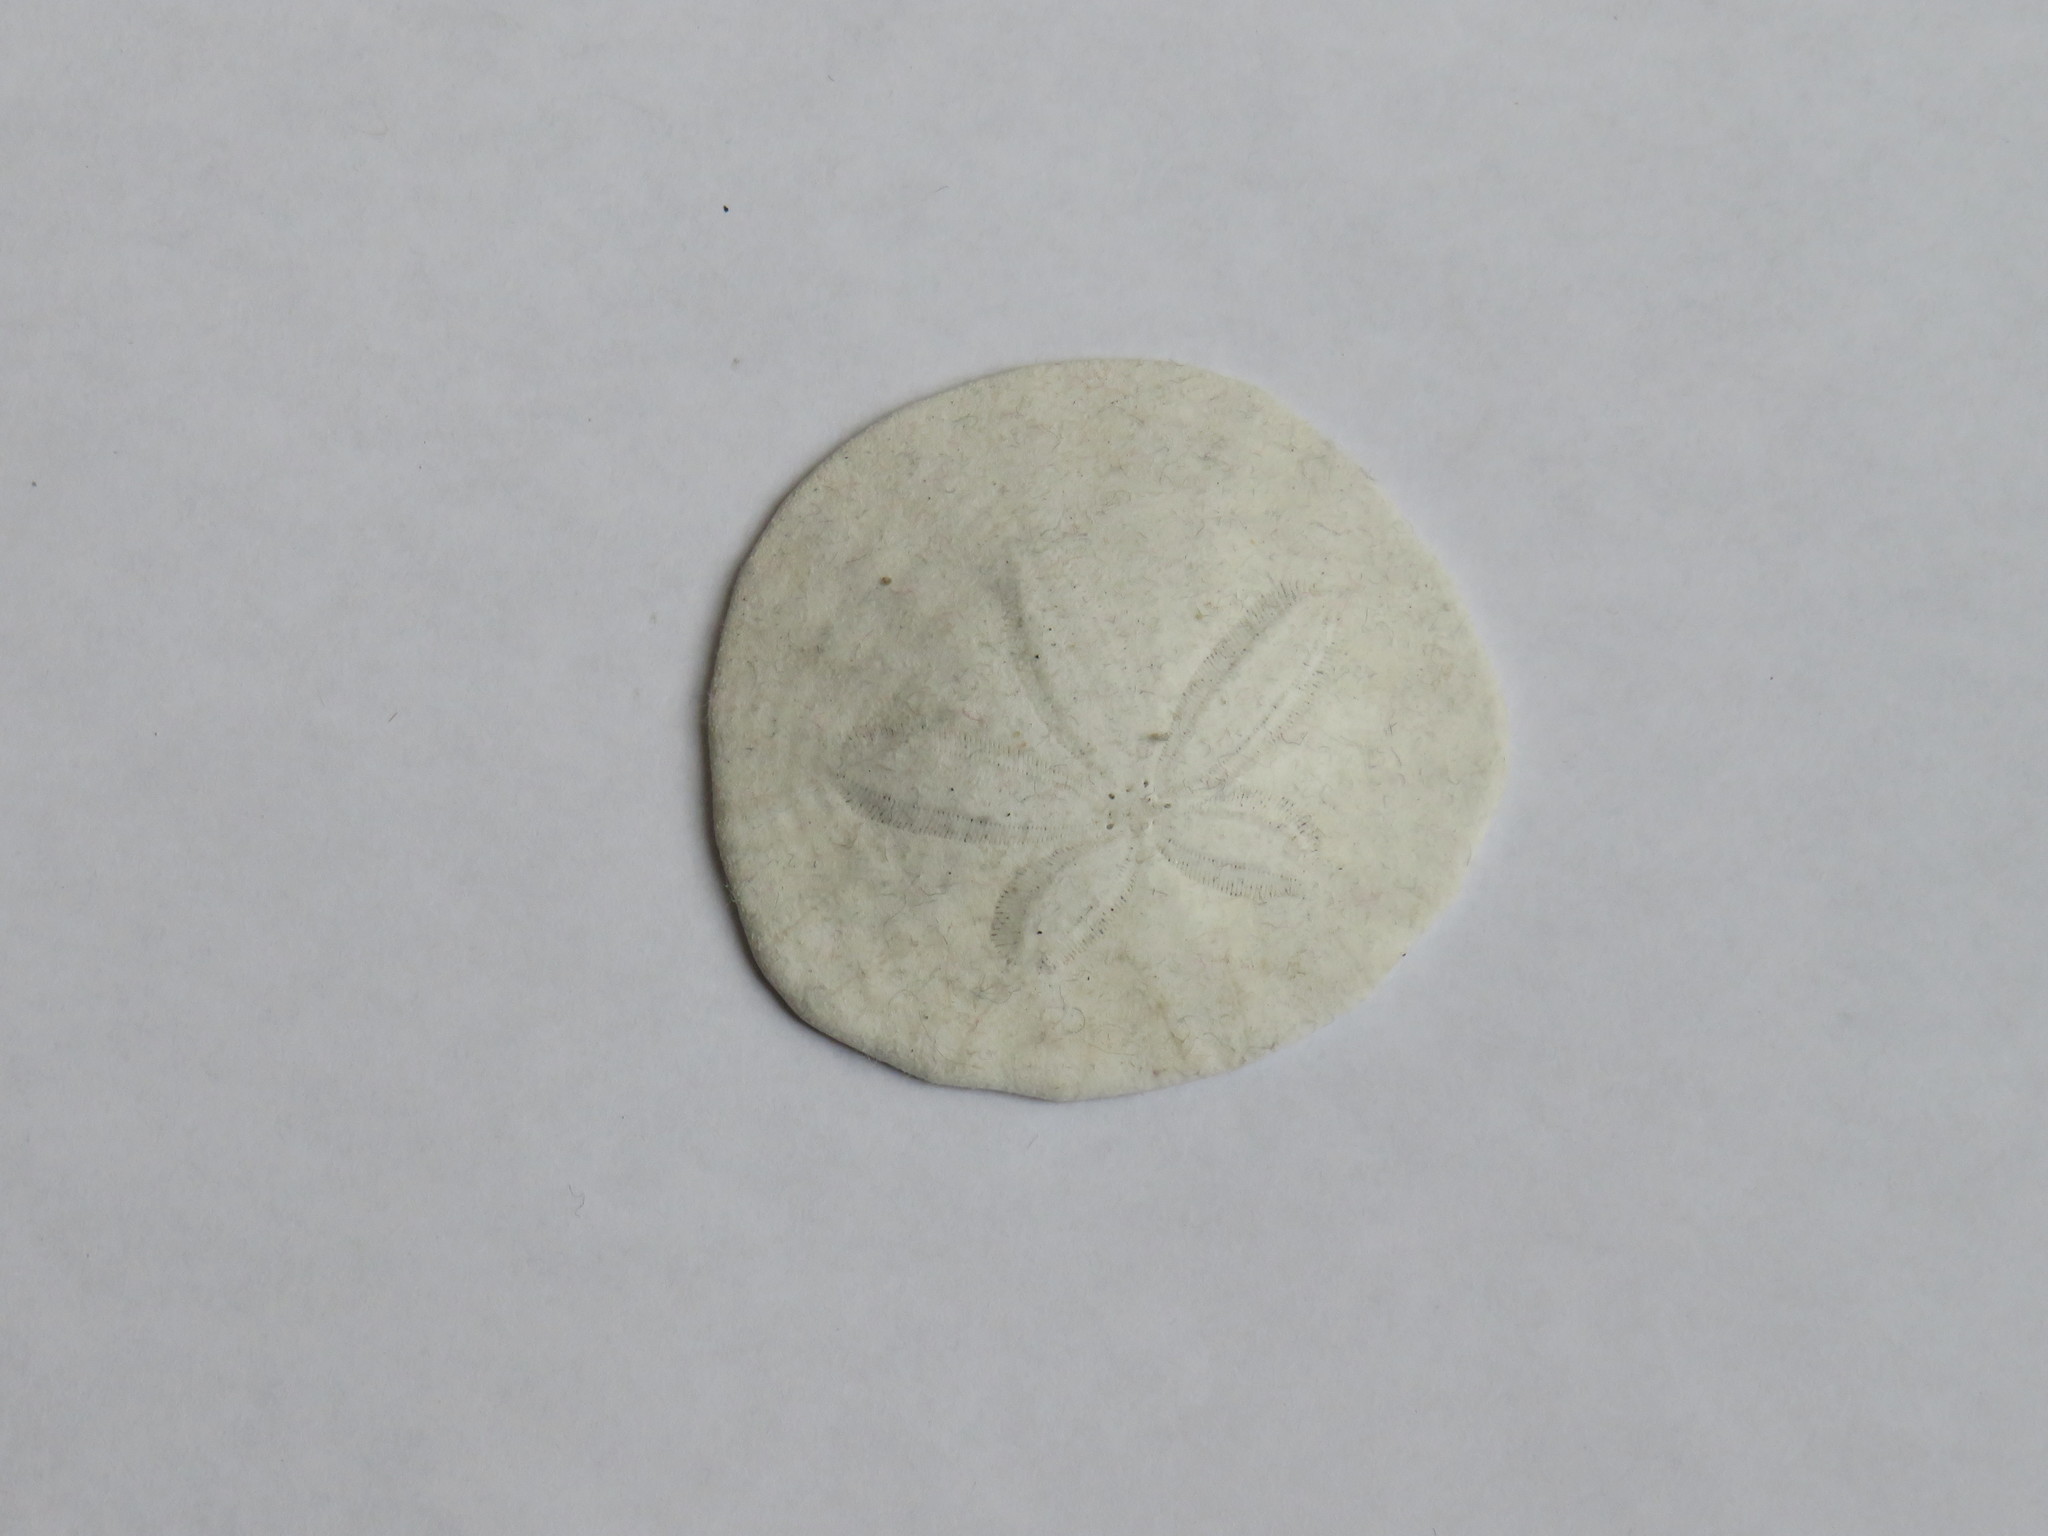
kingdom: Animalia
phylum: Echinodermata
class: Echinoidea
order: Echinolampadacea
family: Dendrasteridae
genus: Dendraster
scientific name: Dendraster excentricus
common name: Eccentric sand dollar sea urchin
